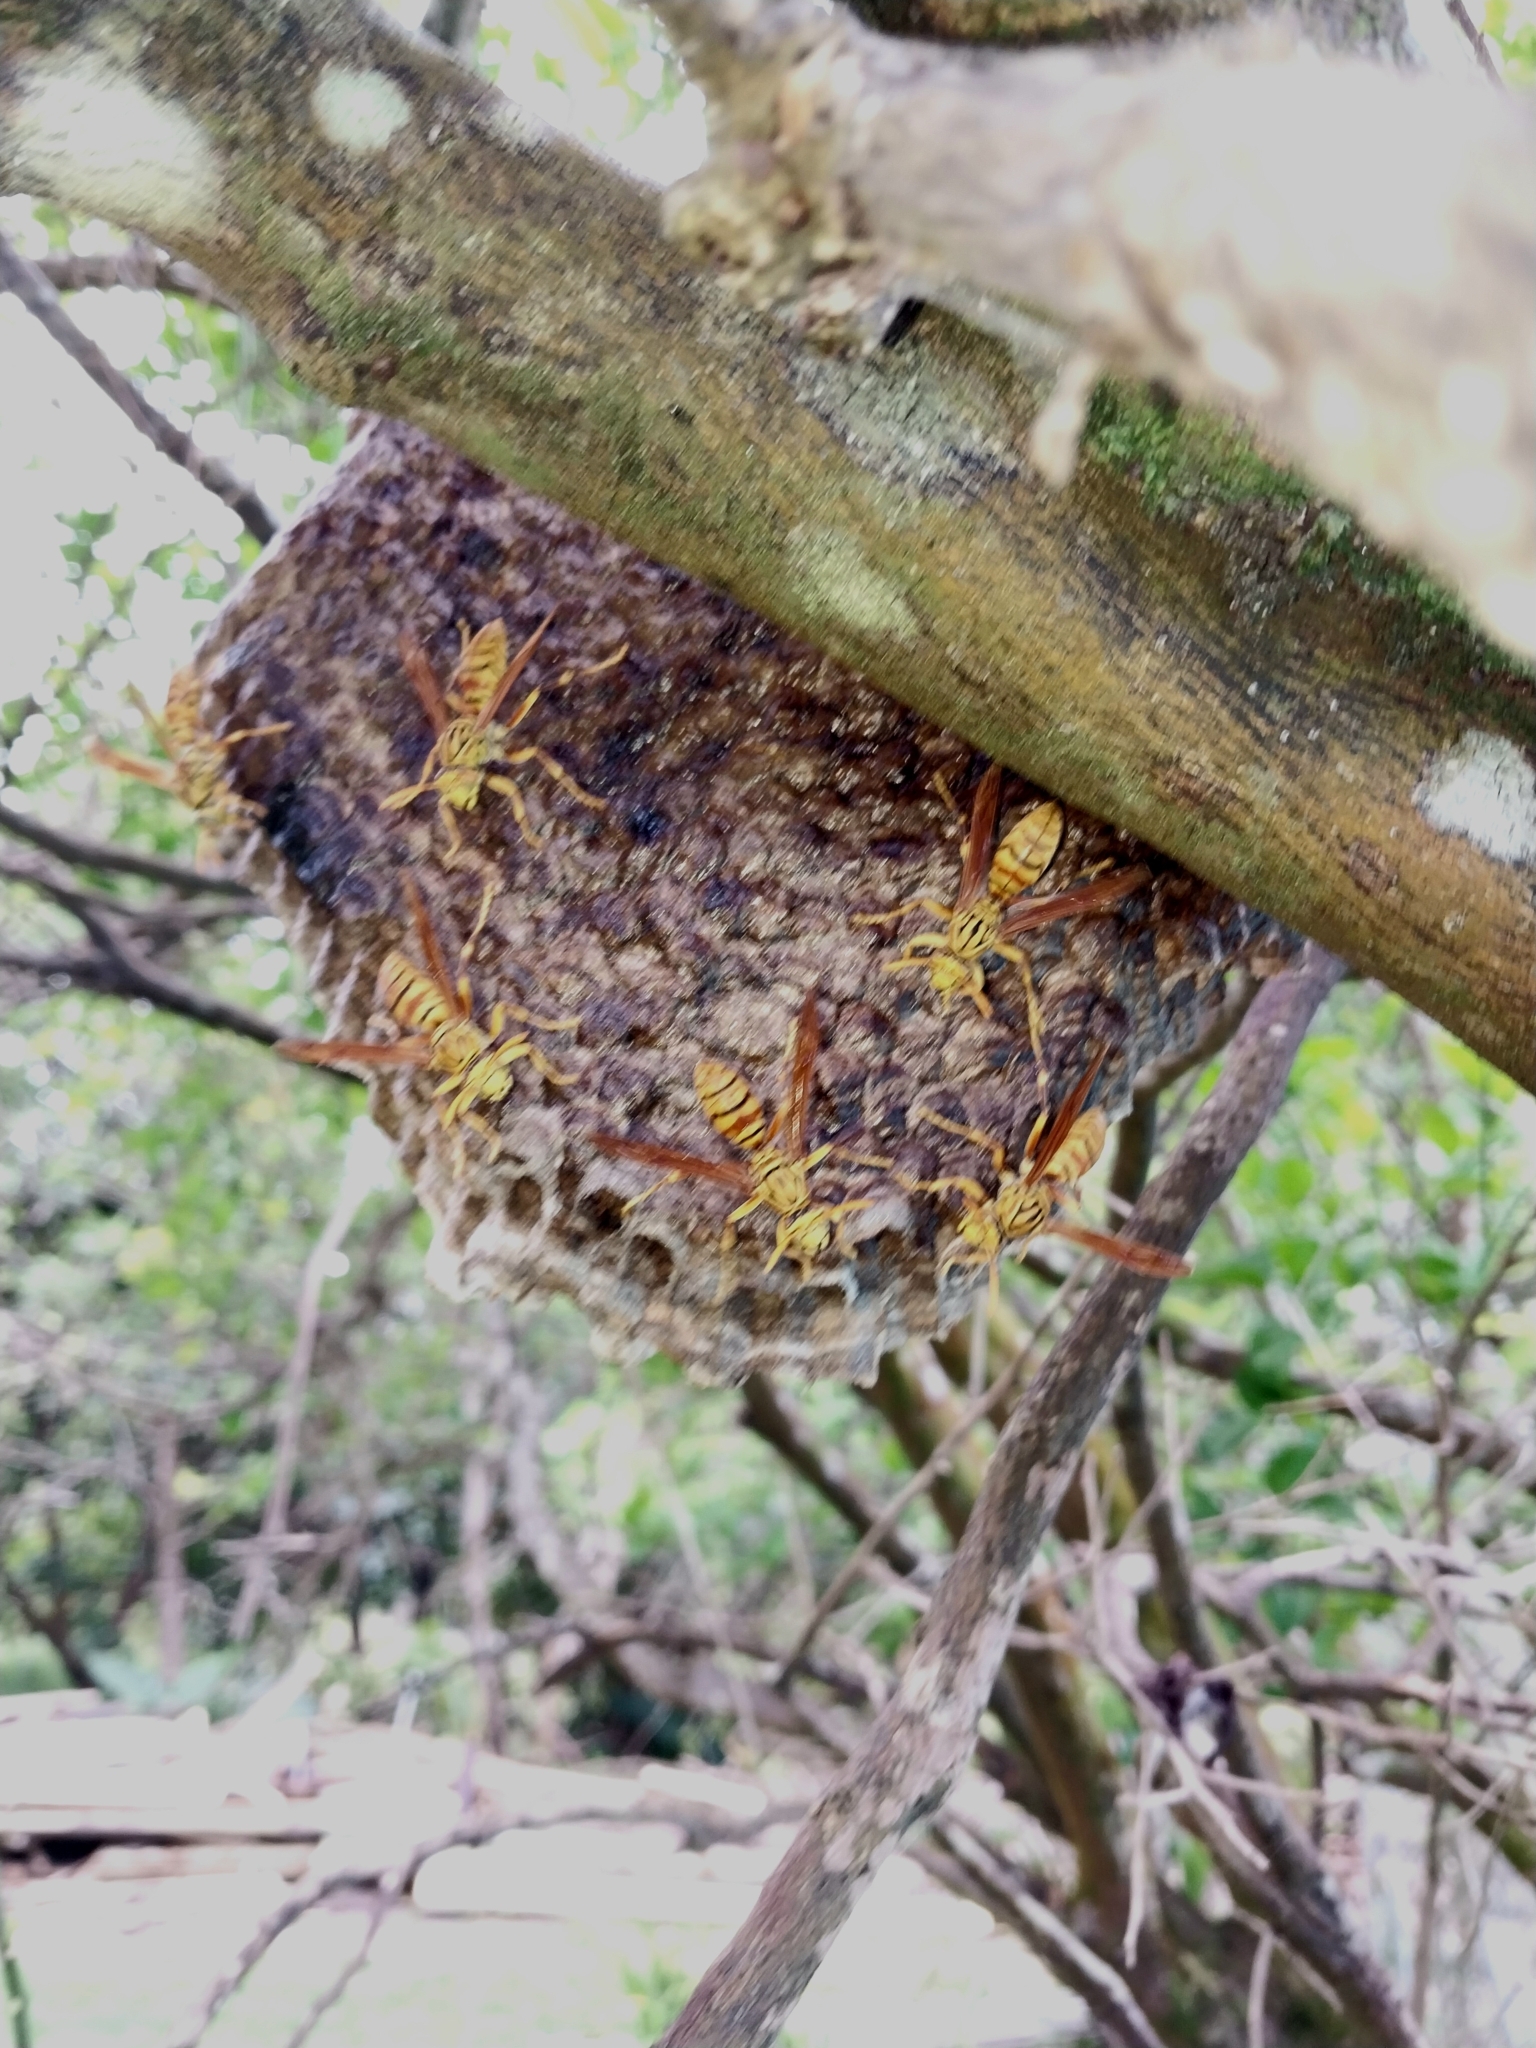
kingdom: Animalia
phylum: Arthropoda
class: Insecta
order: Hymenoptera
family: Eumenidae
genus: Polistes
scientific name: Polistes olivaceus
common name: Paper wasp
